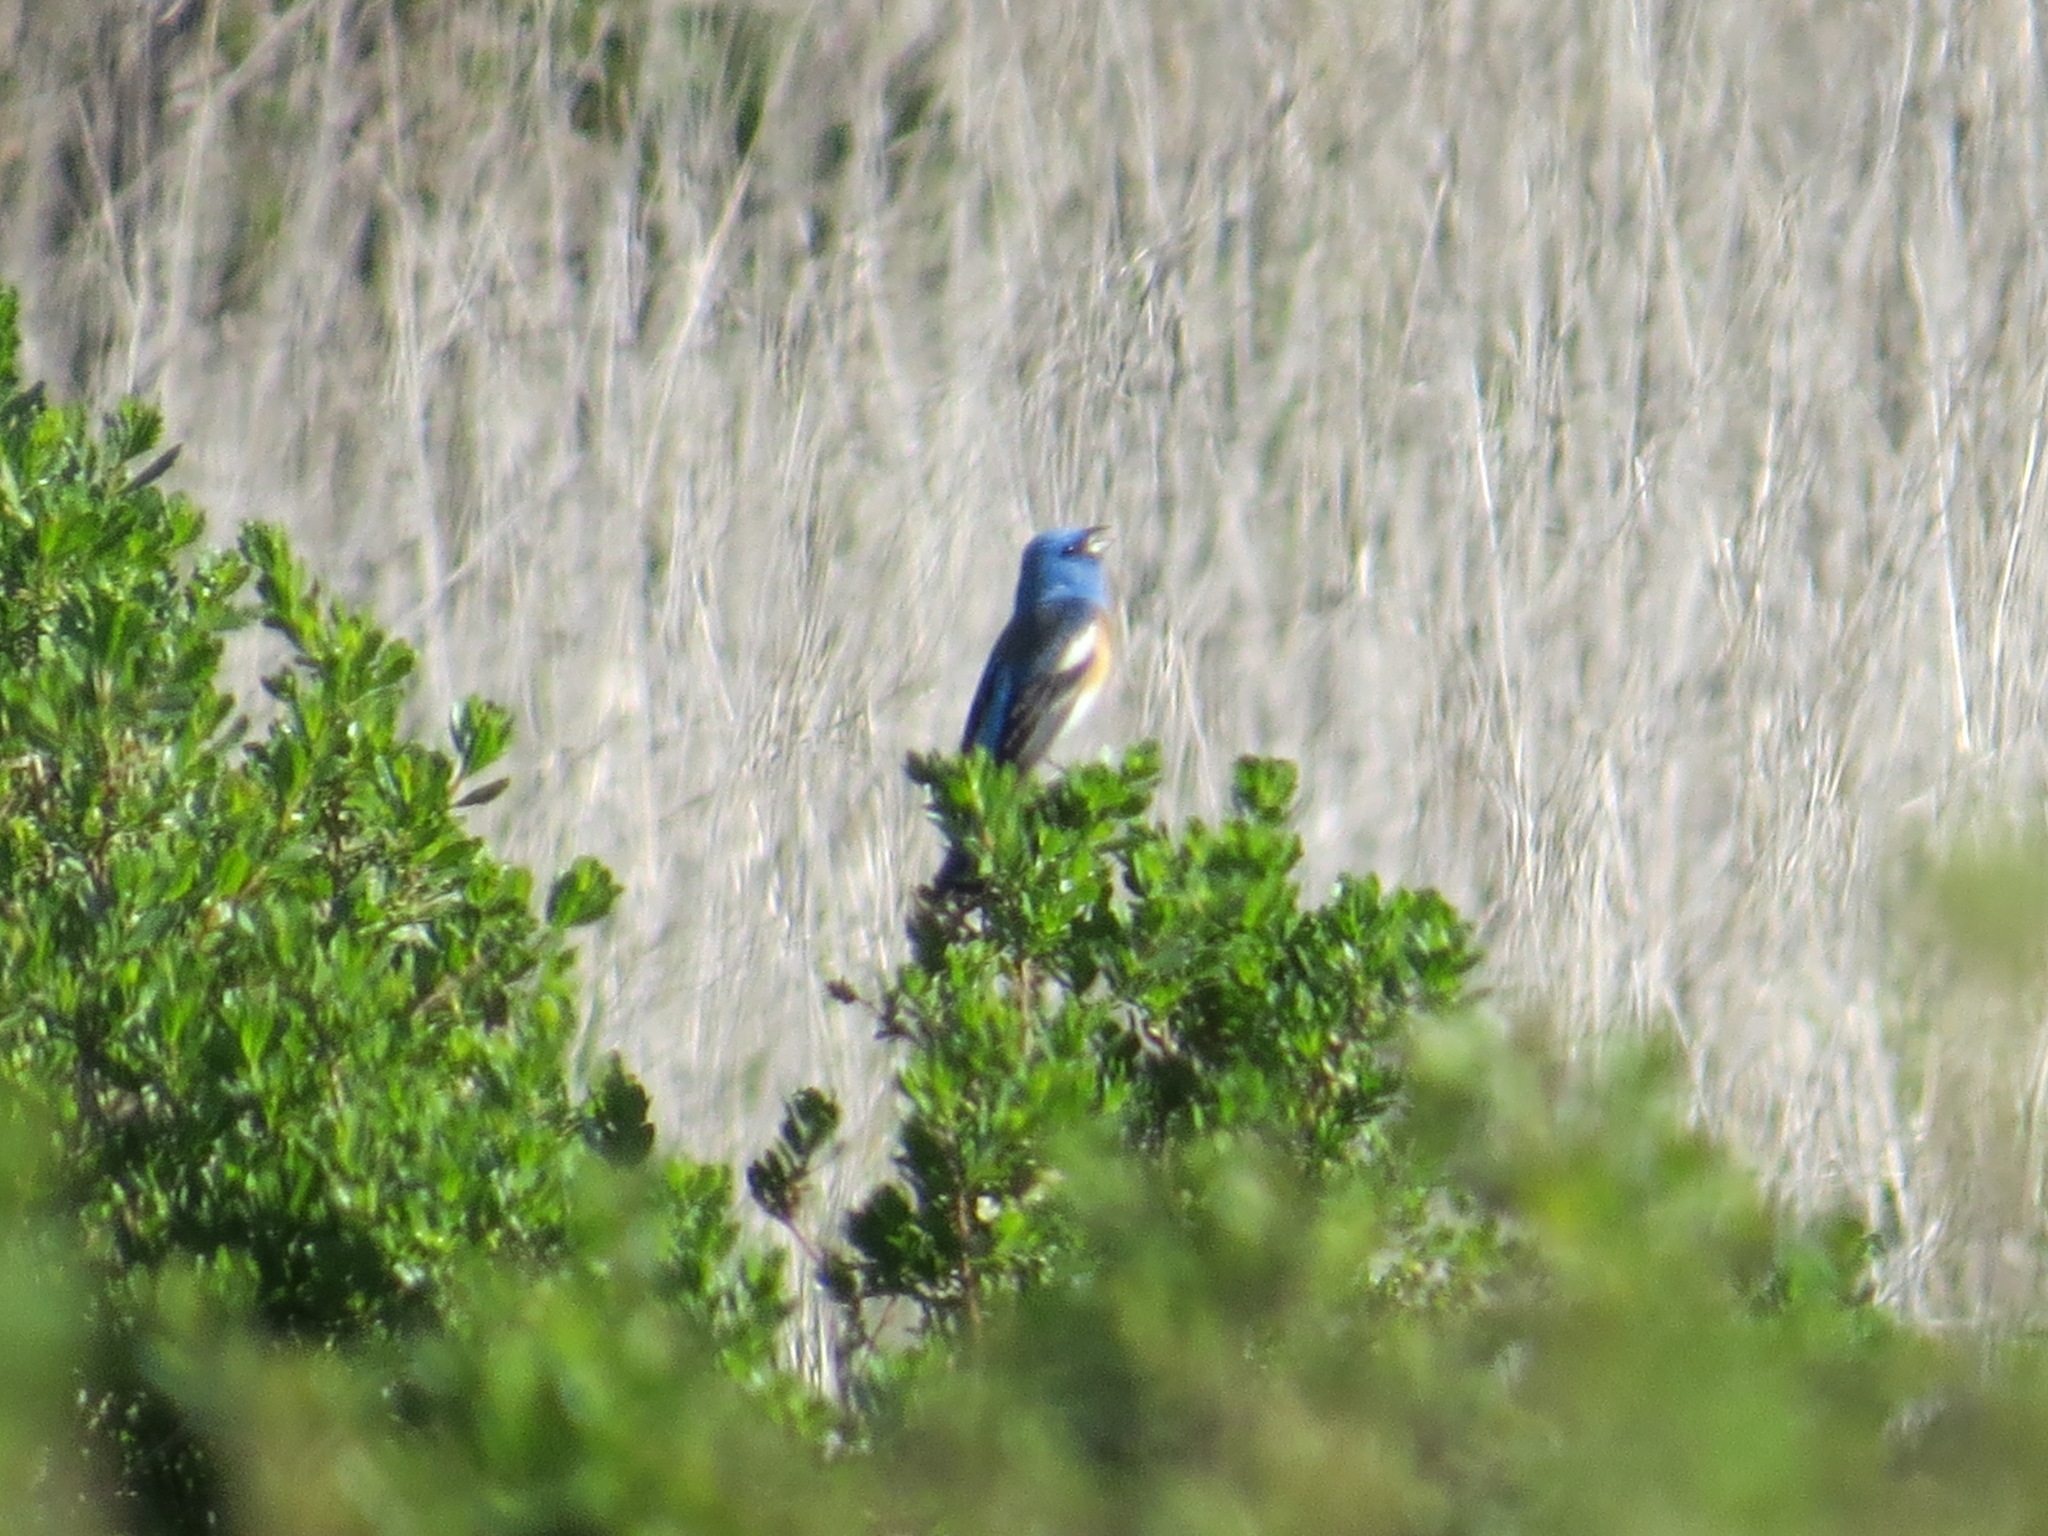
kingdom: Animalia
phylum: Chordata
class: Aves
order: Passeriformes
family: Cardinalidae
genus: Passerina
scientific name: Passerina amoena
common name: Lazuli bunting
